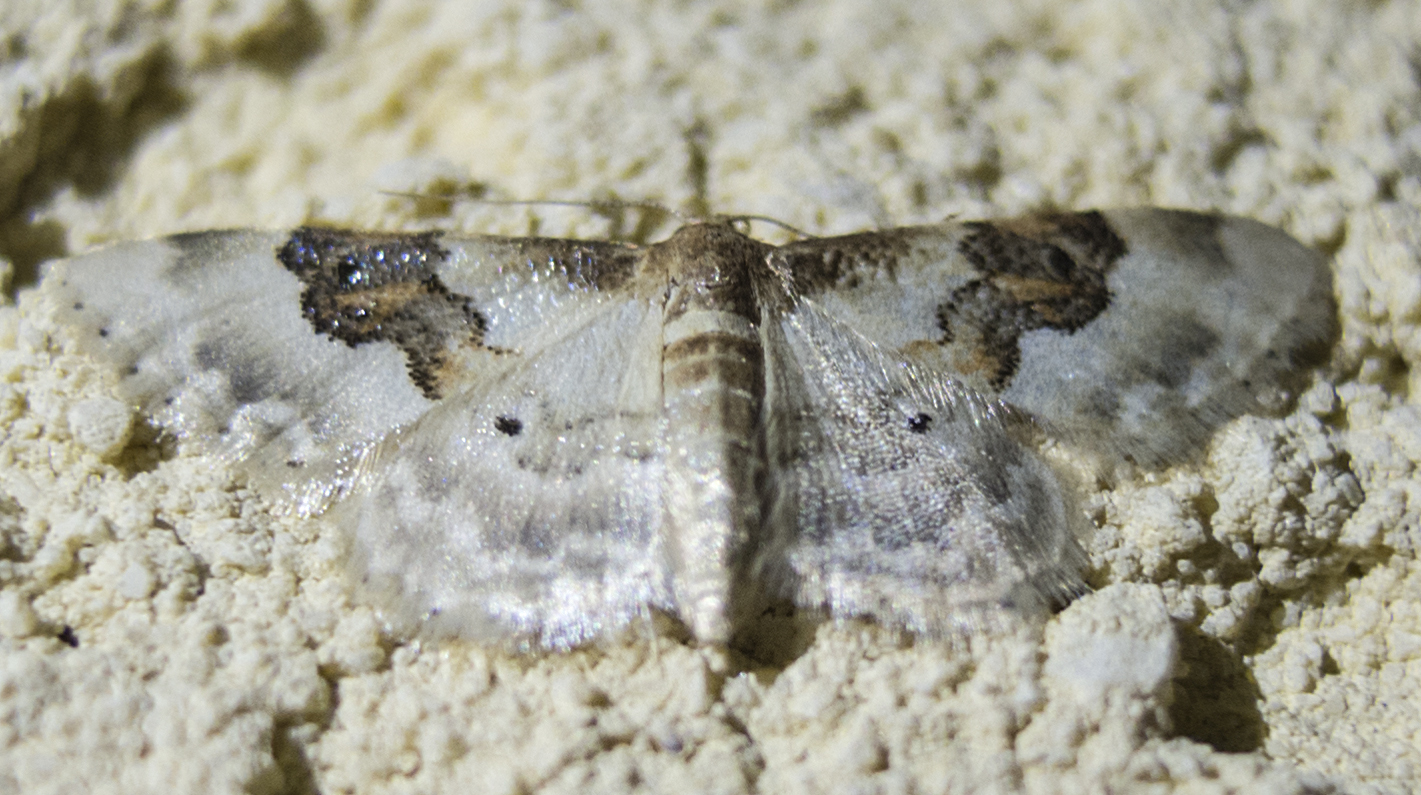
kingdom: Animalia
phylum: Arthropoda
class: Insecta
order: Lepidoptera
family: Geometridae
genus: Idaea
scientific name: Idaea rusticata
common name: Least carpet
